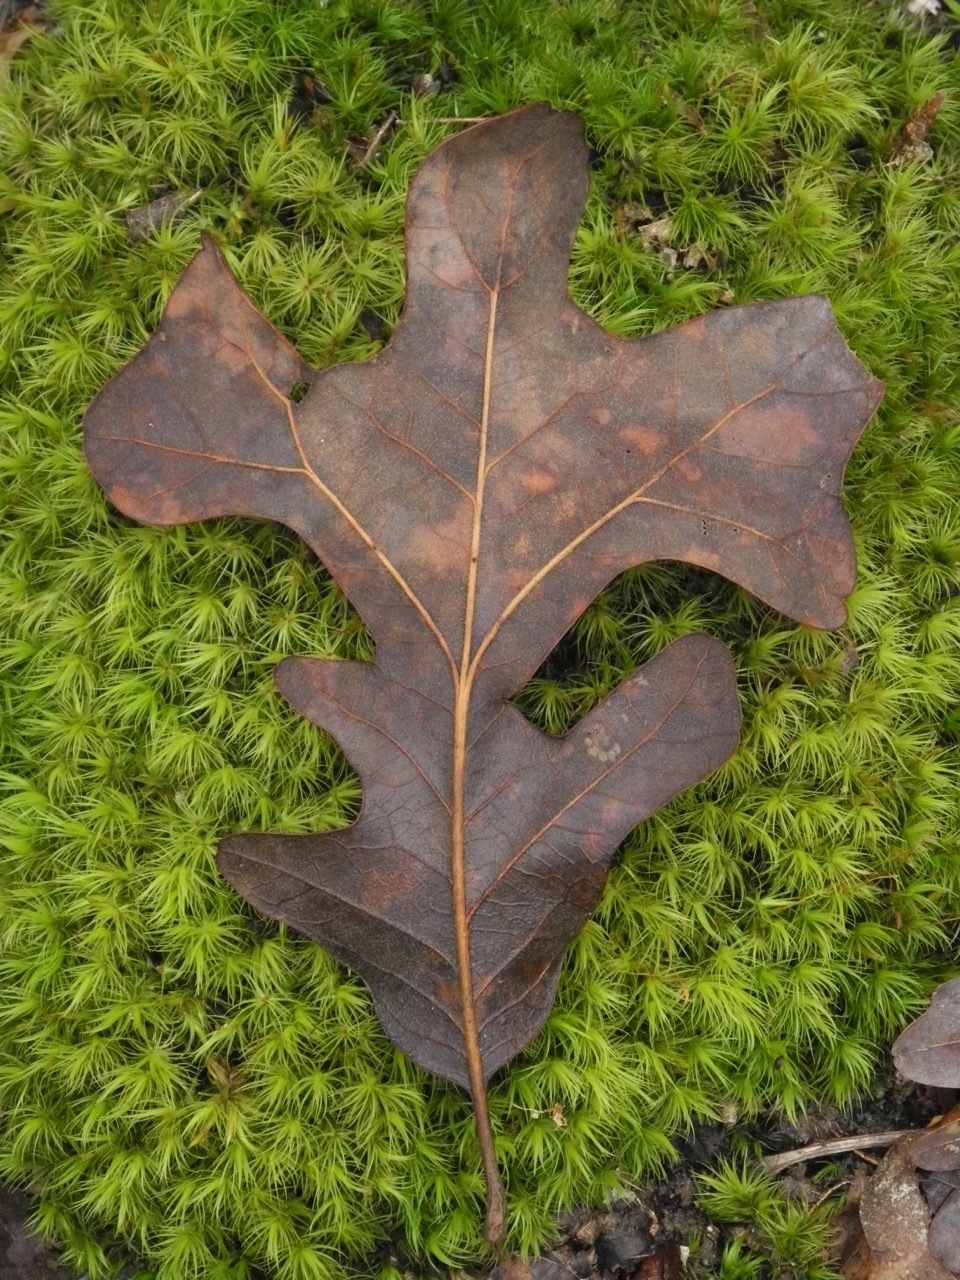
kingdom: Plantae
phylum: Tracheophyta
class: Magnoliopsida
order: Fagales
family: Fagaceae
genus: Quercus
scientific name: Quercus stellata
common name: Post oak
